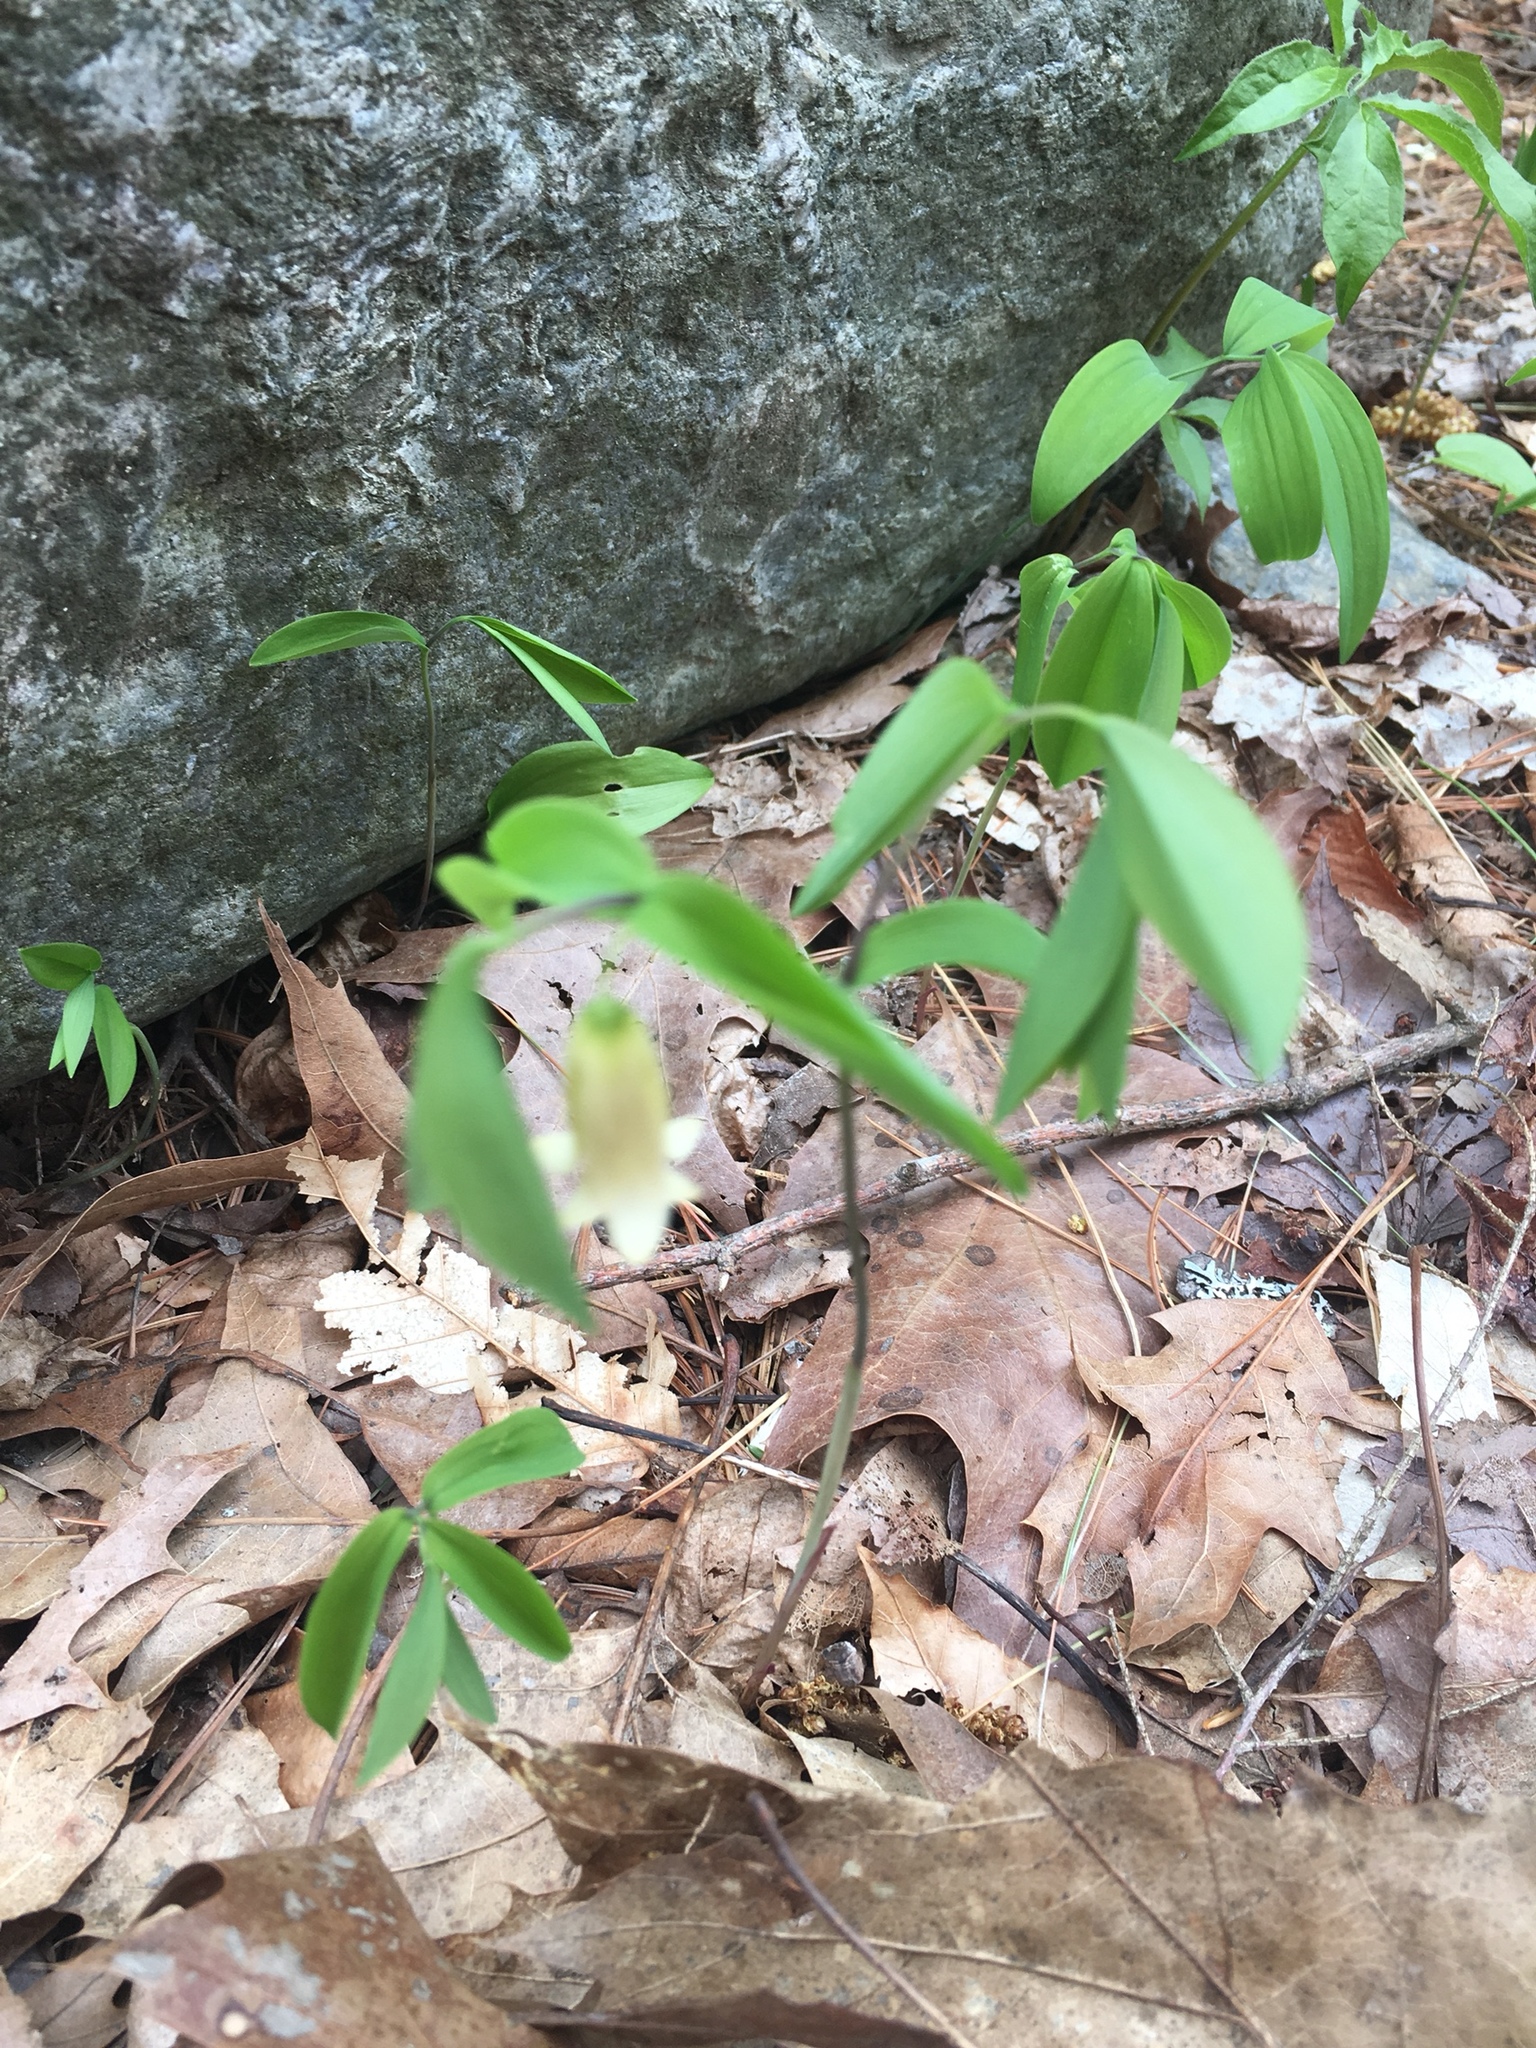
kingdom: Plantae
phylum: Tracheophyta
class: Liliopsida
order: Liliales
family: Colchicaceae
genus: Uvularia
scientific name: Uvularia sessilifolia
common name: Straw-lily
